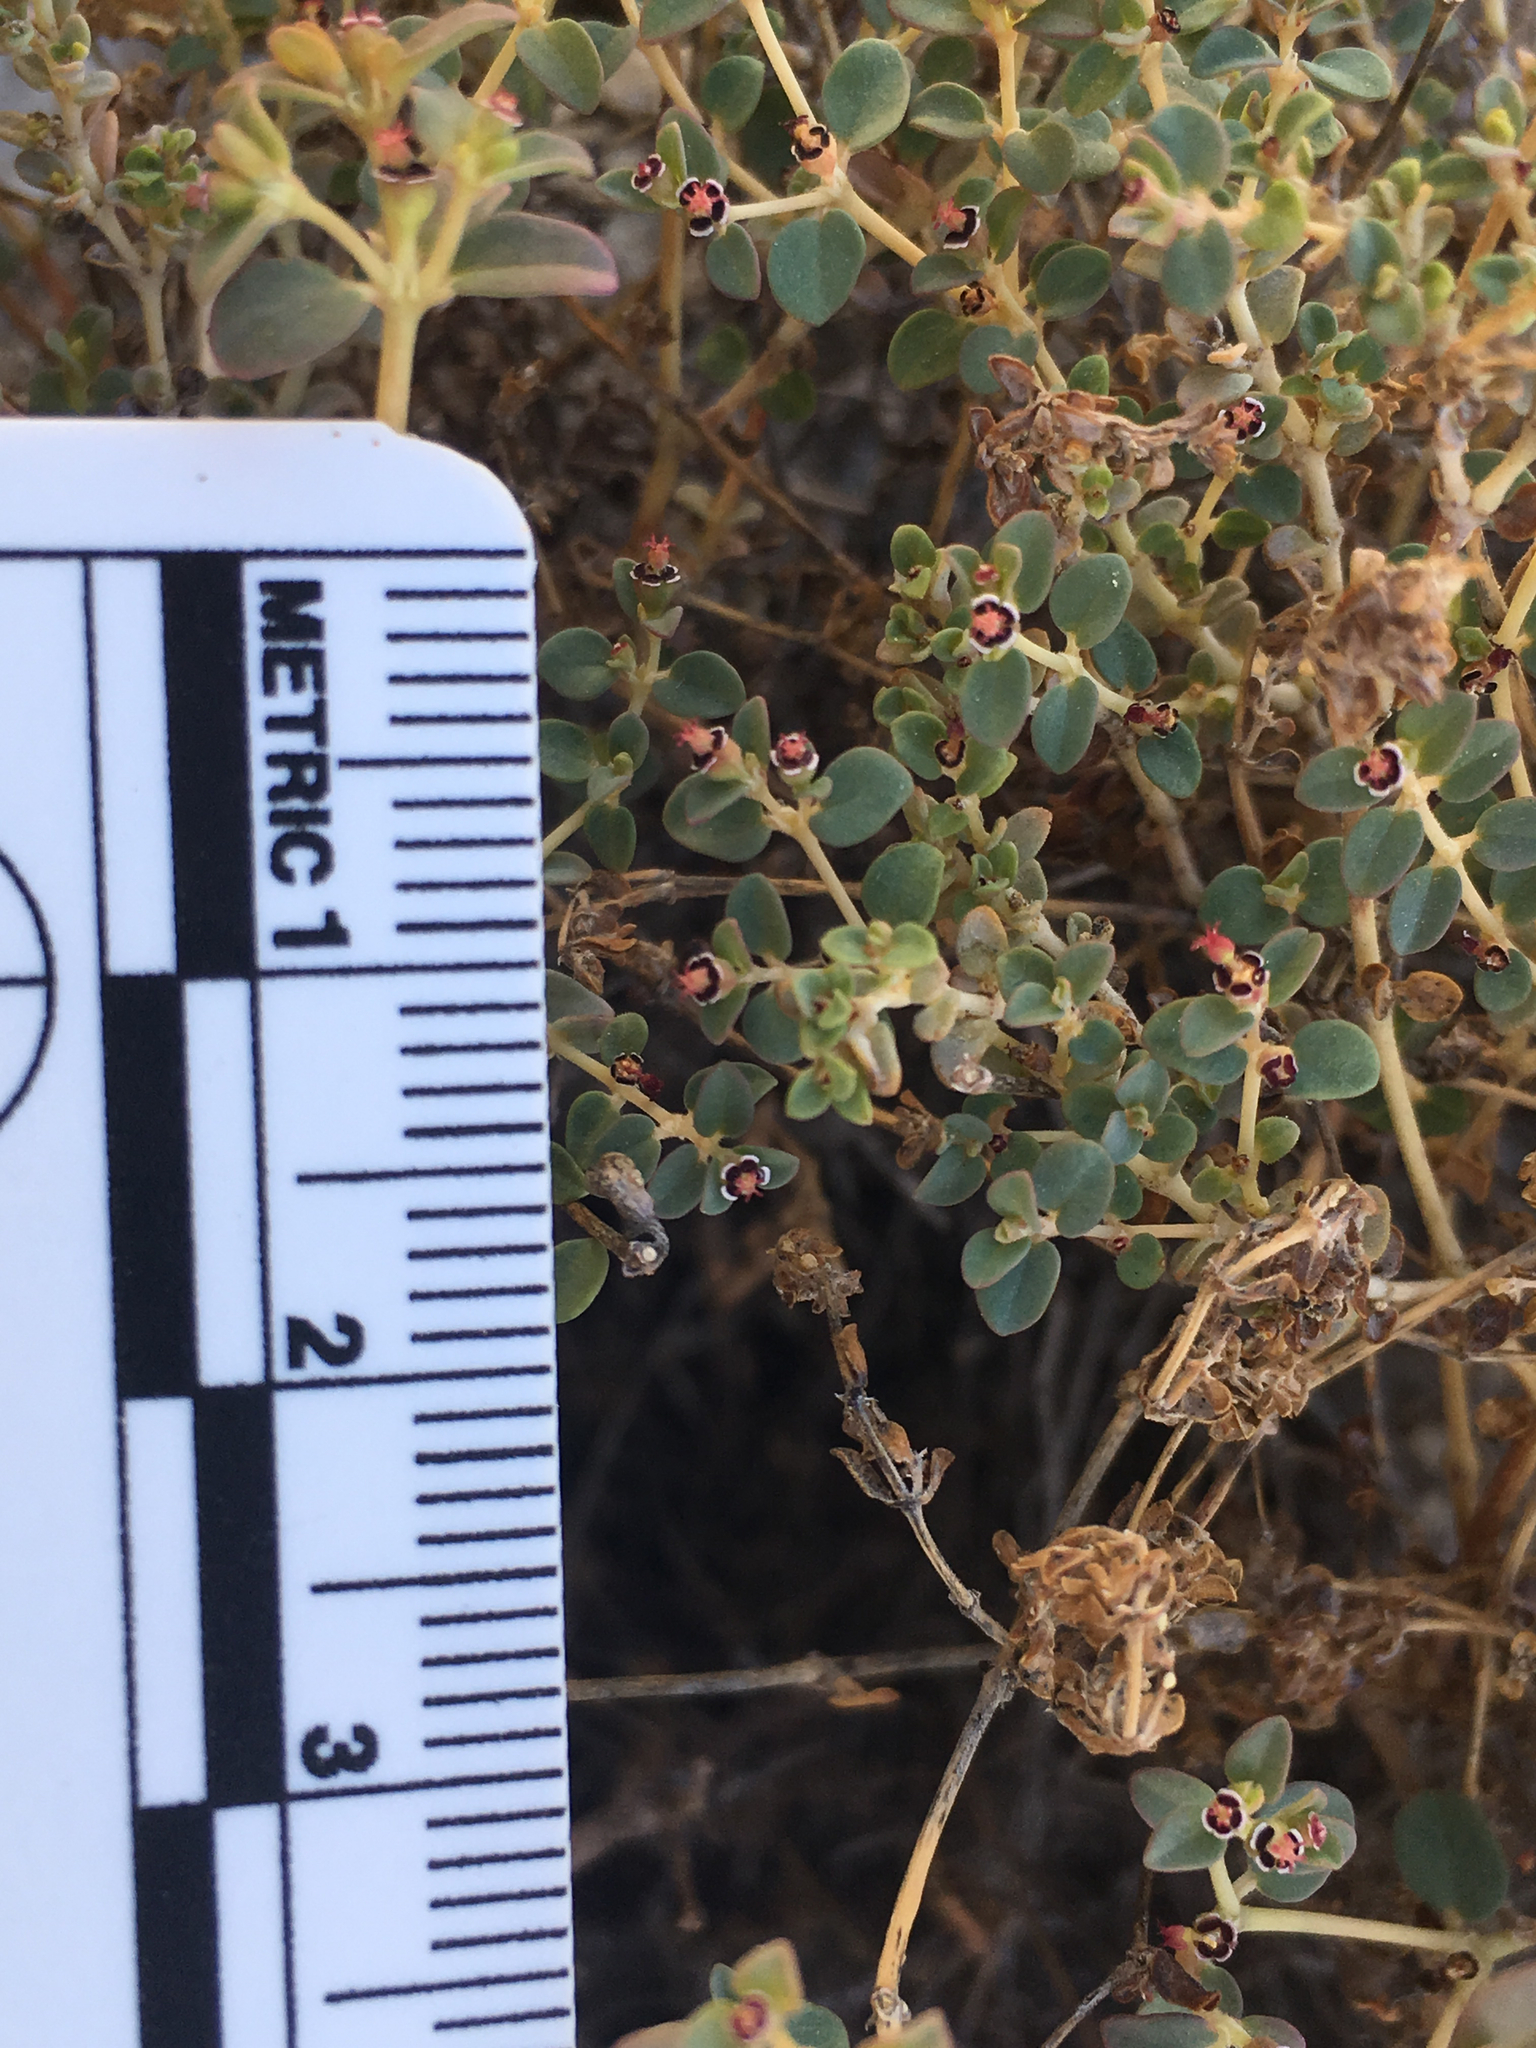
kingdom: Plantae
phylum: Tracheophyta
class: Magnoliopsida
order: Malpighiales
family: Euphorbiaceae
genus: Euphorbia
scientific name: Euphorbia polycarpa
